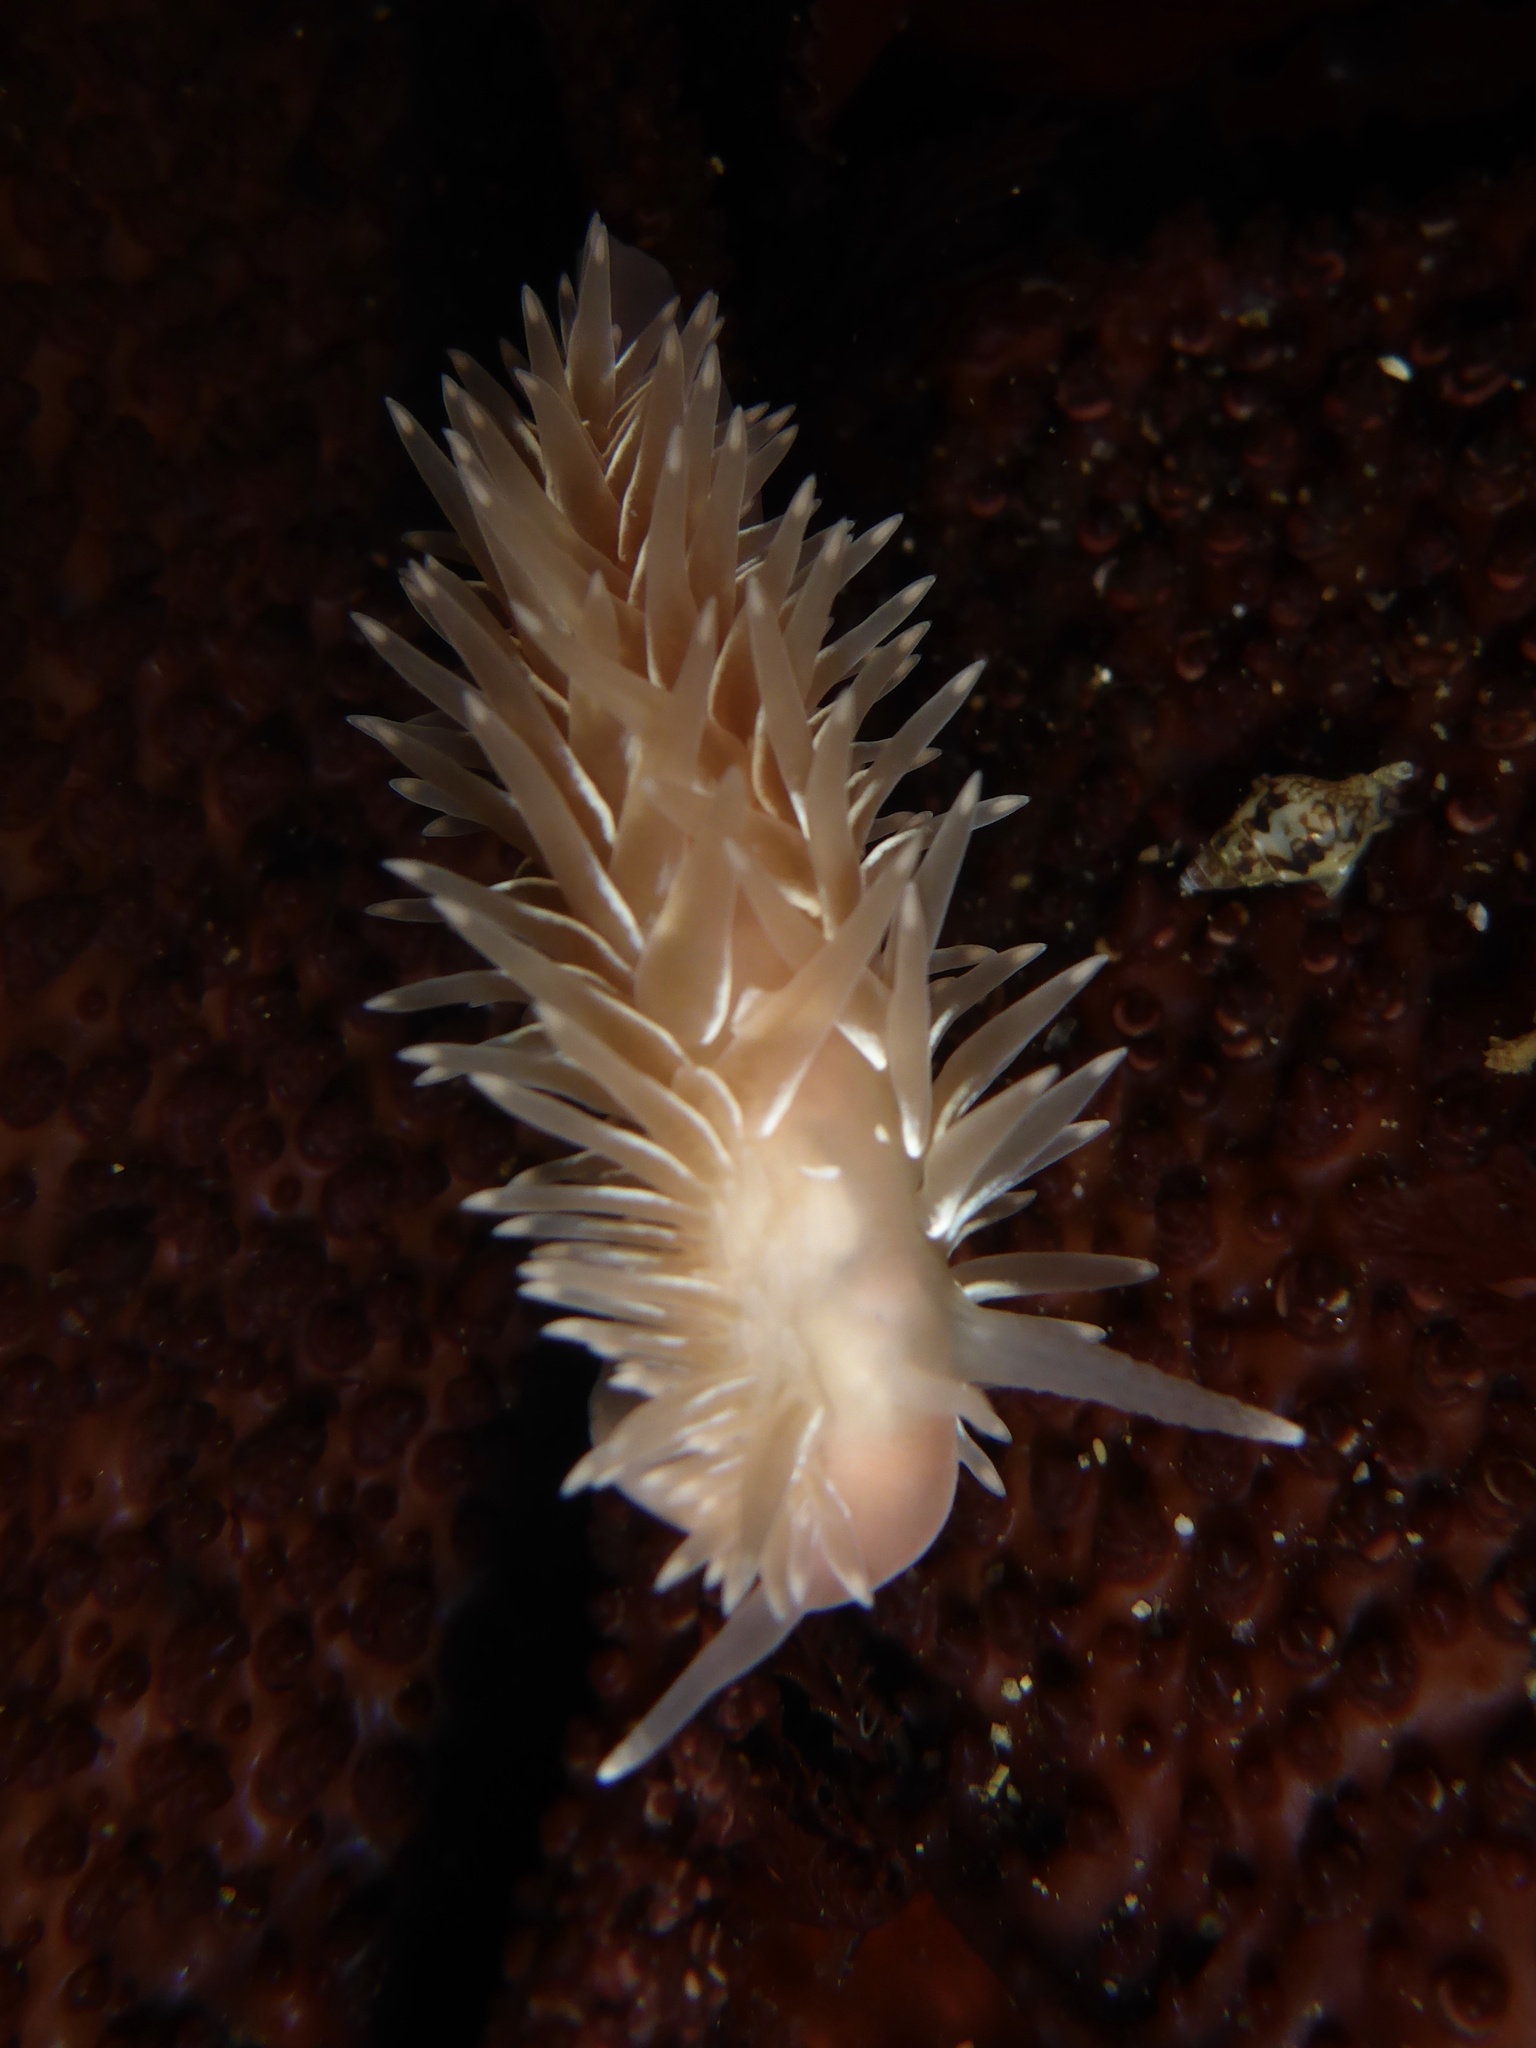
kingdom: Animalia
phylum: Mollusca
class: Gastropoda
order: Nudibranchia
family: Aeolidiidae
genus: Aeolidia
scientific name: Aeolidia loui
